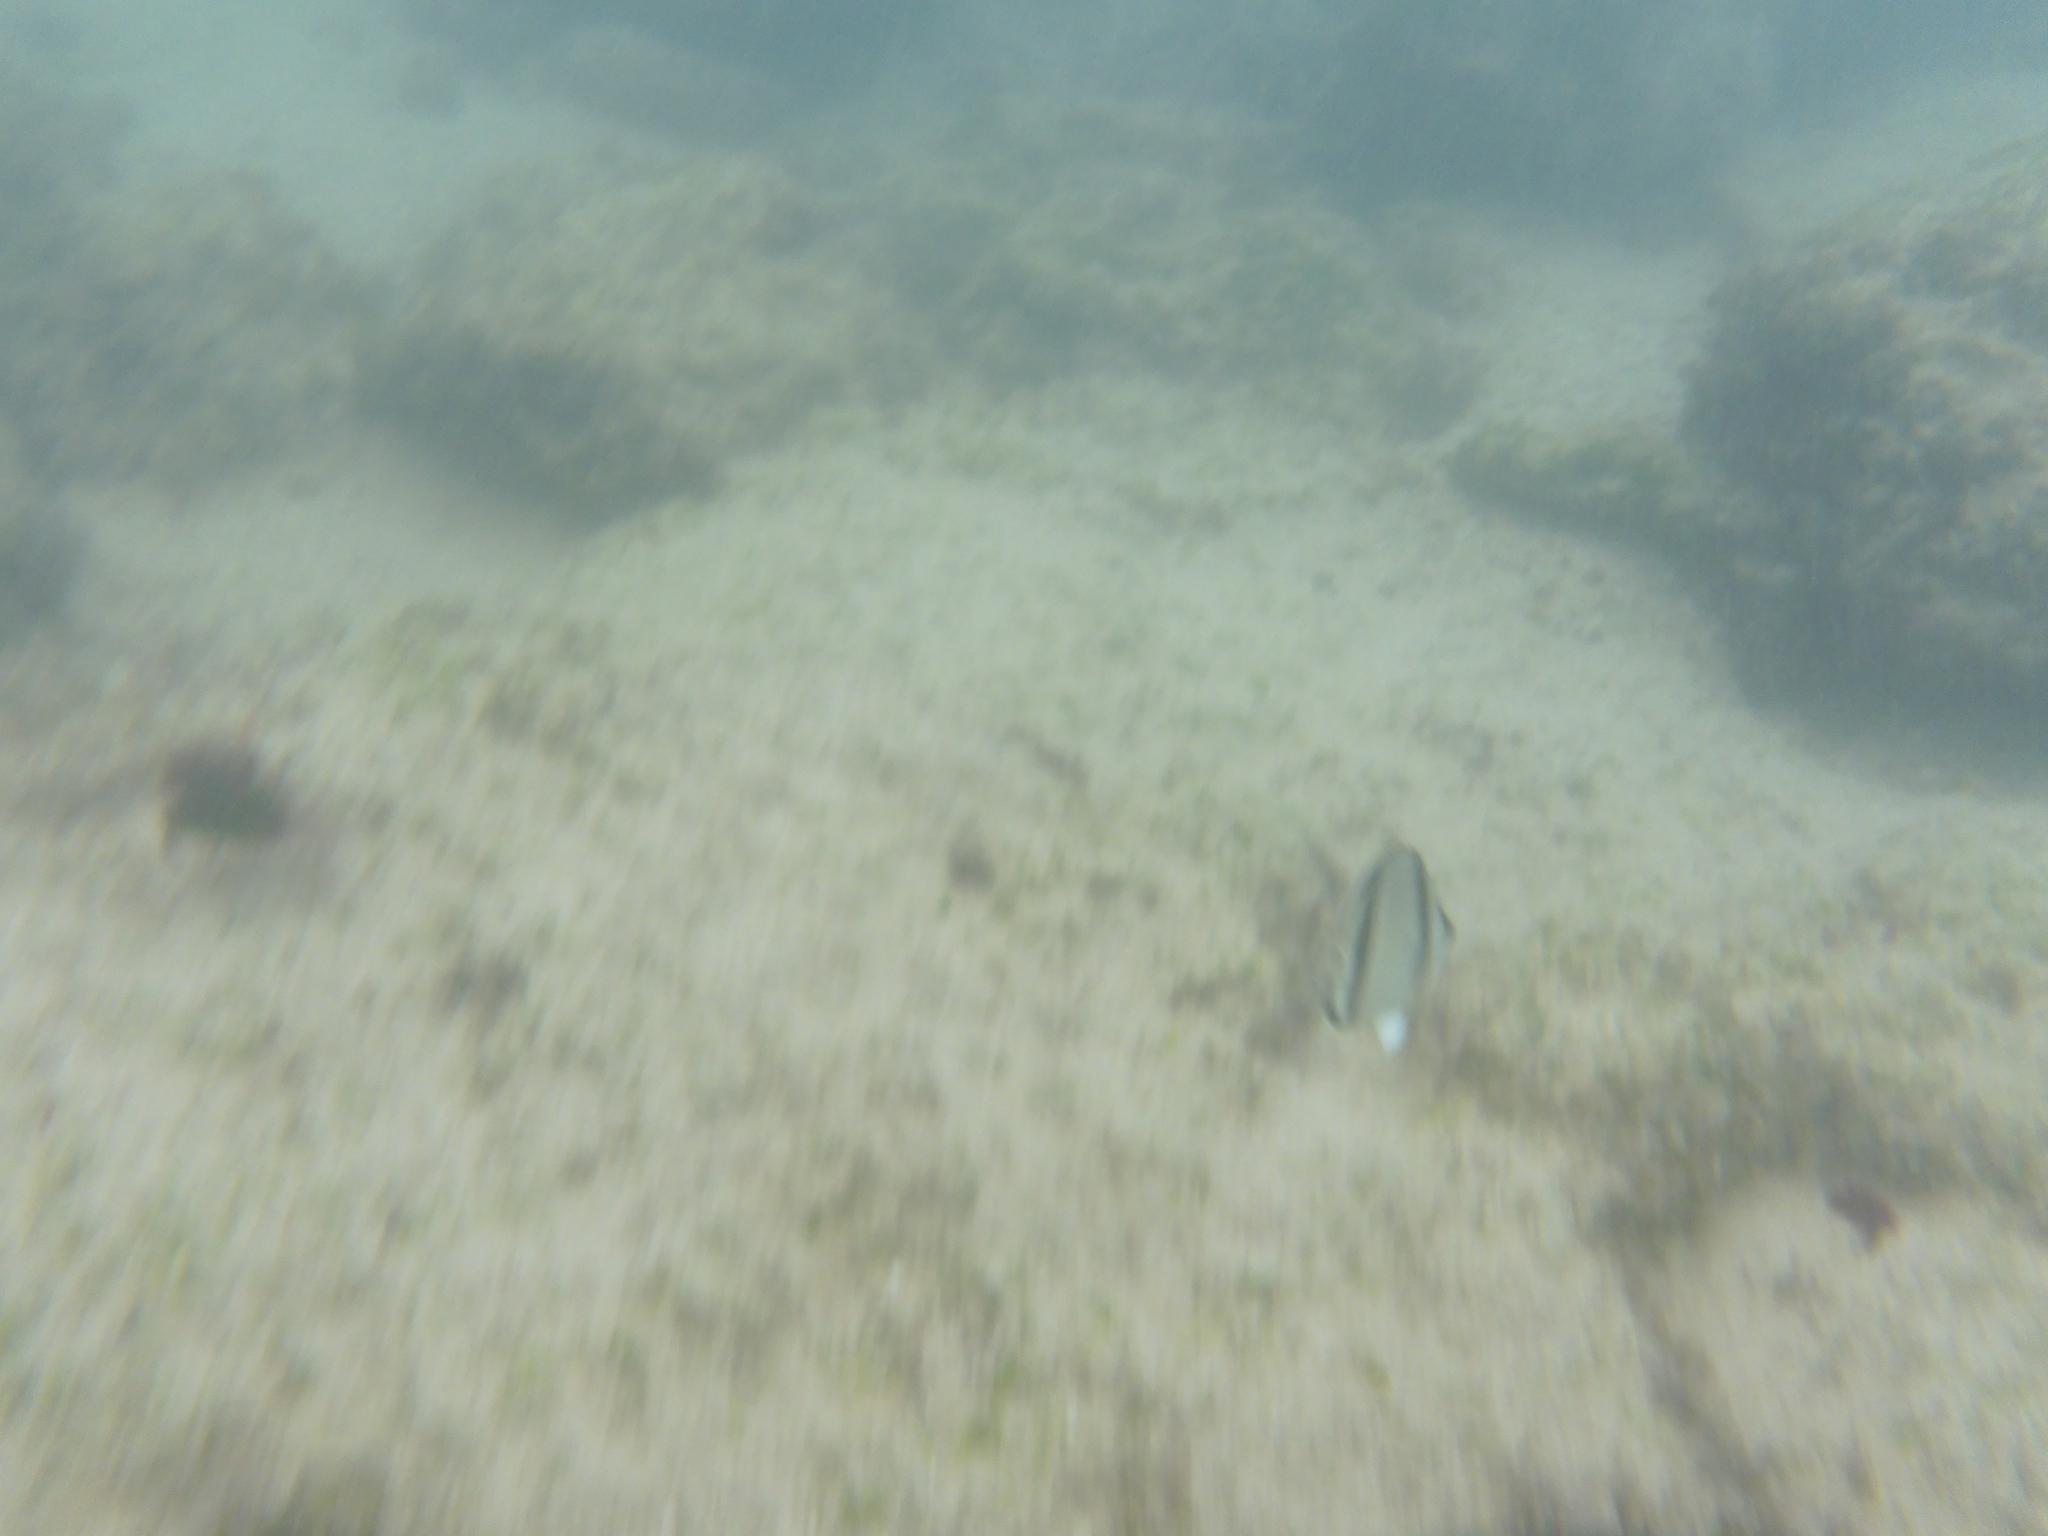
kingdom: Animalia
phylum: Chordata
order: Perciformes
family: Chaetodontidae
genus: Chaetodon
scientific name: Chaetodon humeralis
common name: Threebanded butterflyfish
